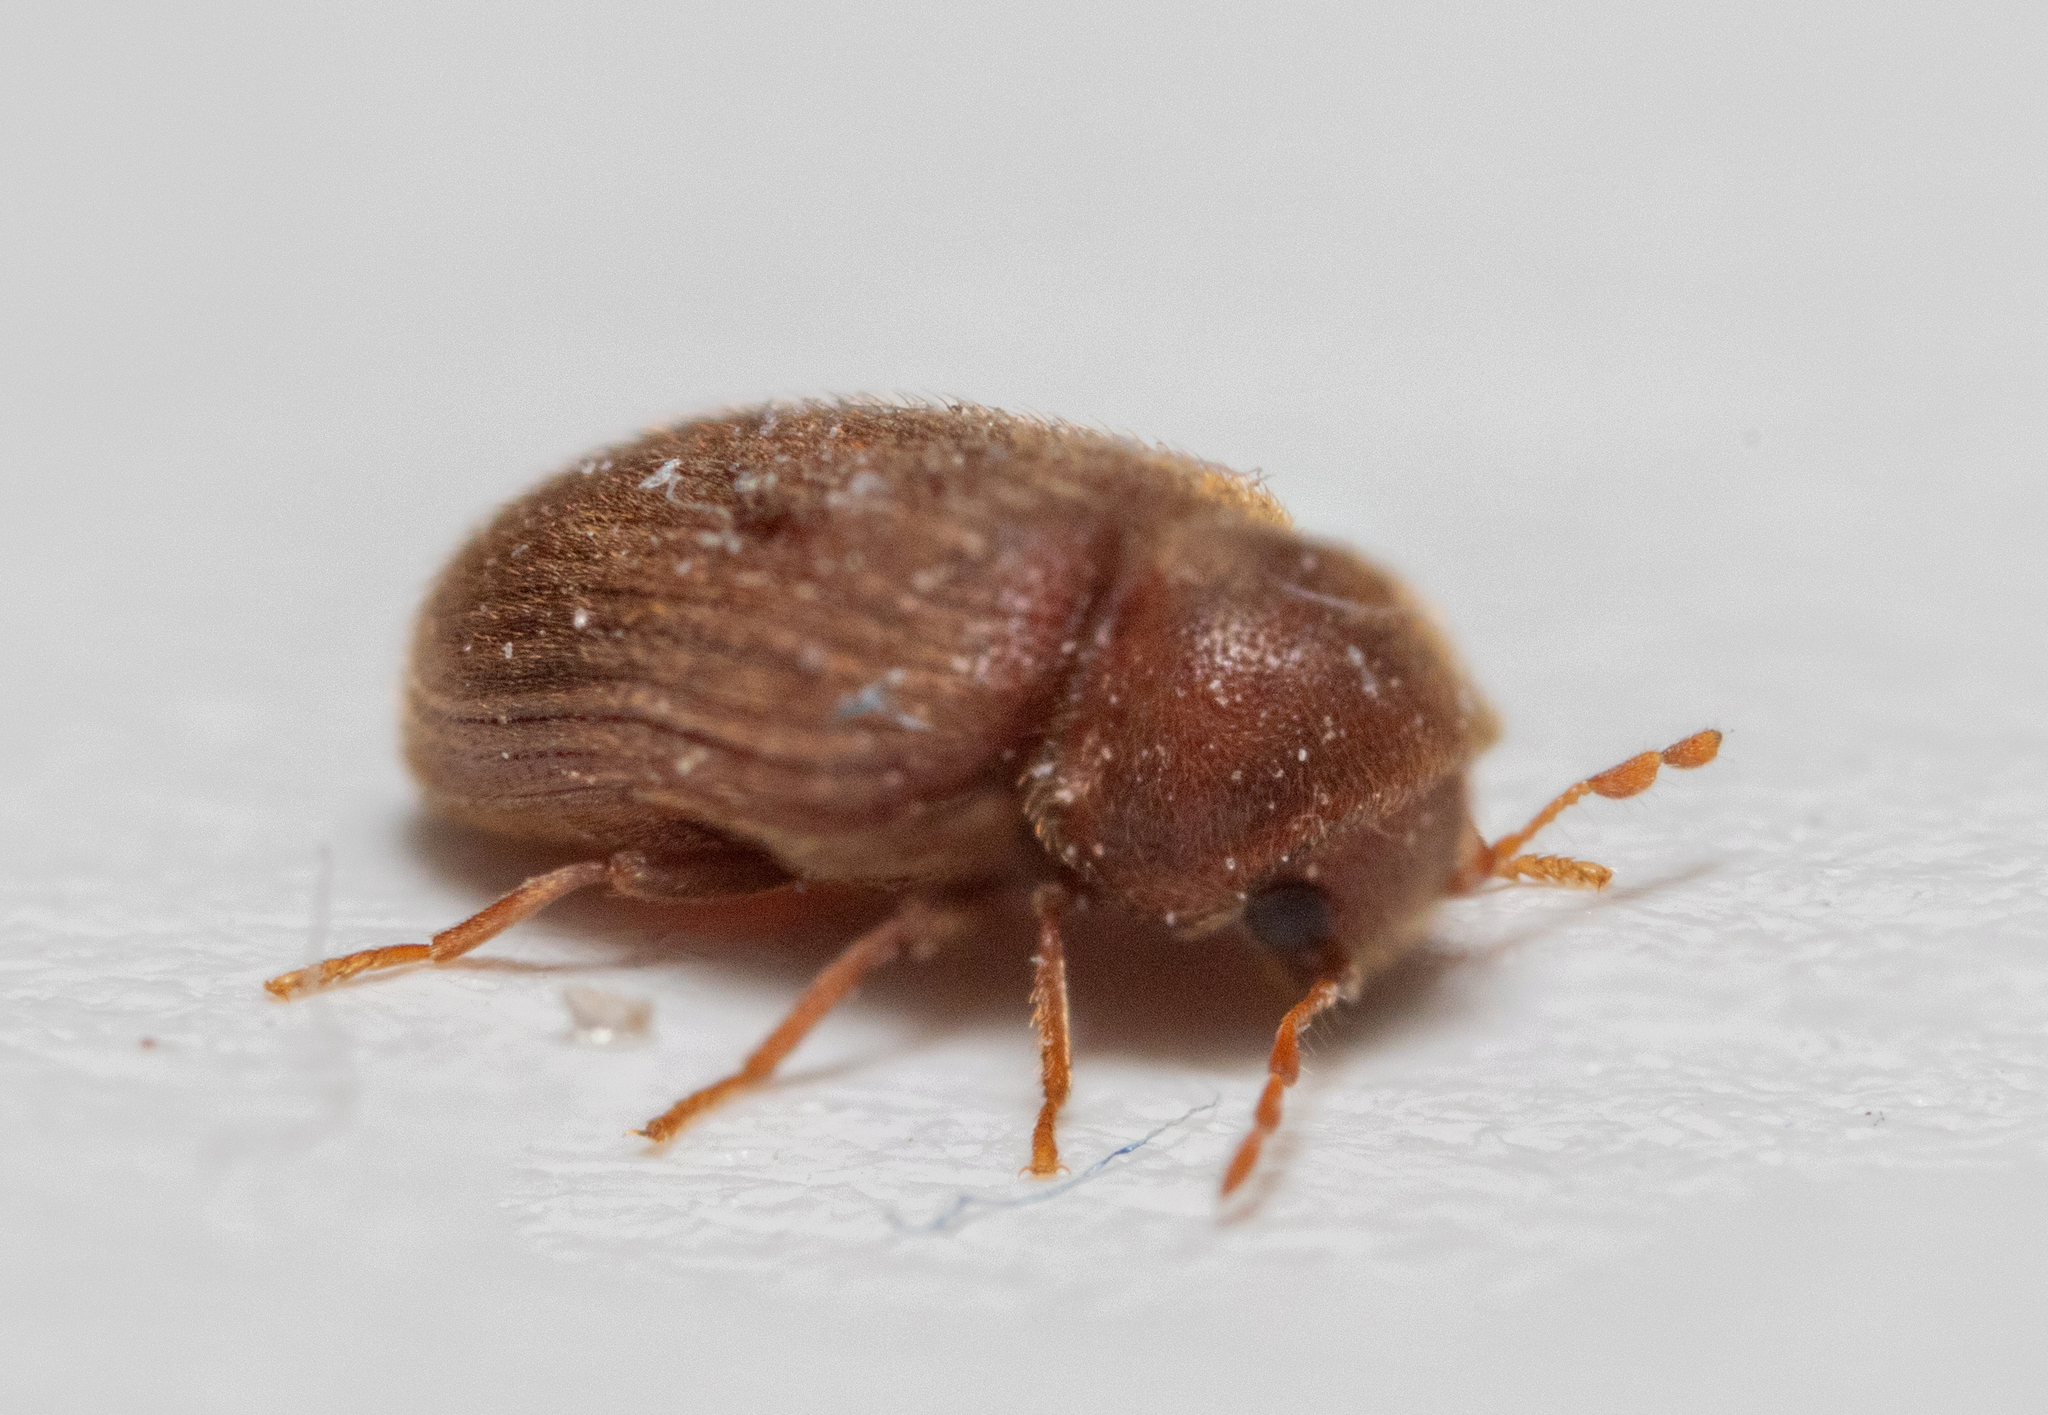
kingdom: Animalia
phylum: Arthropoda
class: Insecta
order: Coleoptera
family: Anobiidae
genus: Stegobium
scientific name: Stegobium paniceum
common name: Drugstore beetle
